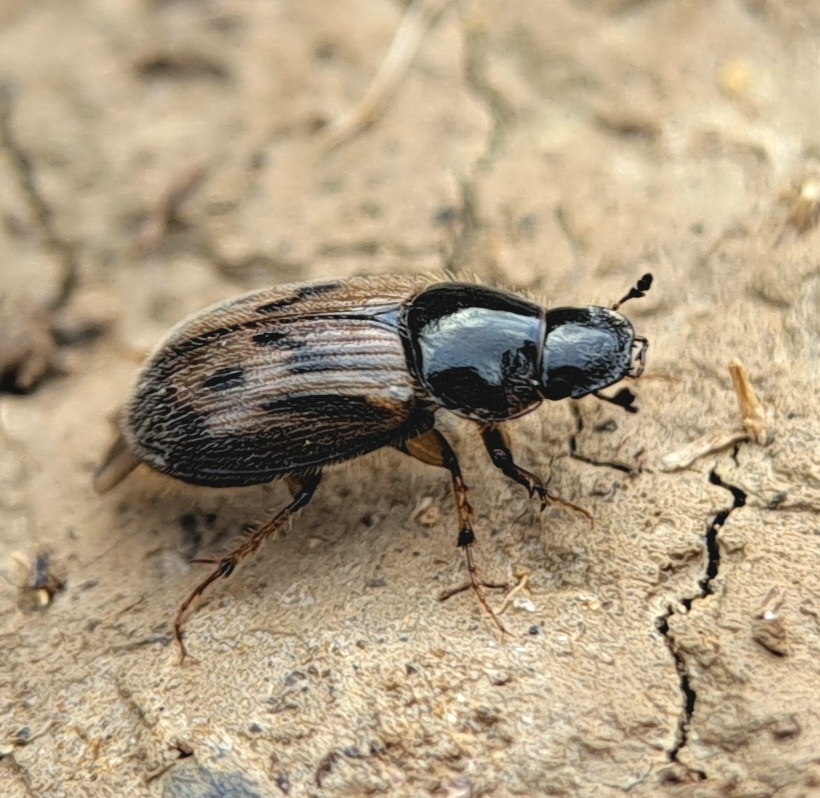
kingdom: Animalia
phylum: Arthropoda
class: Insecta
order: Coleoptera
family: Scarabaeidae
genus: Nimbus
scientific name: Nimbus contaminatus
